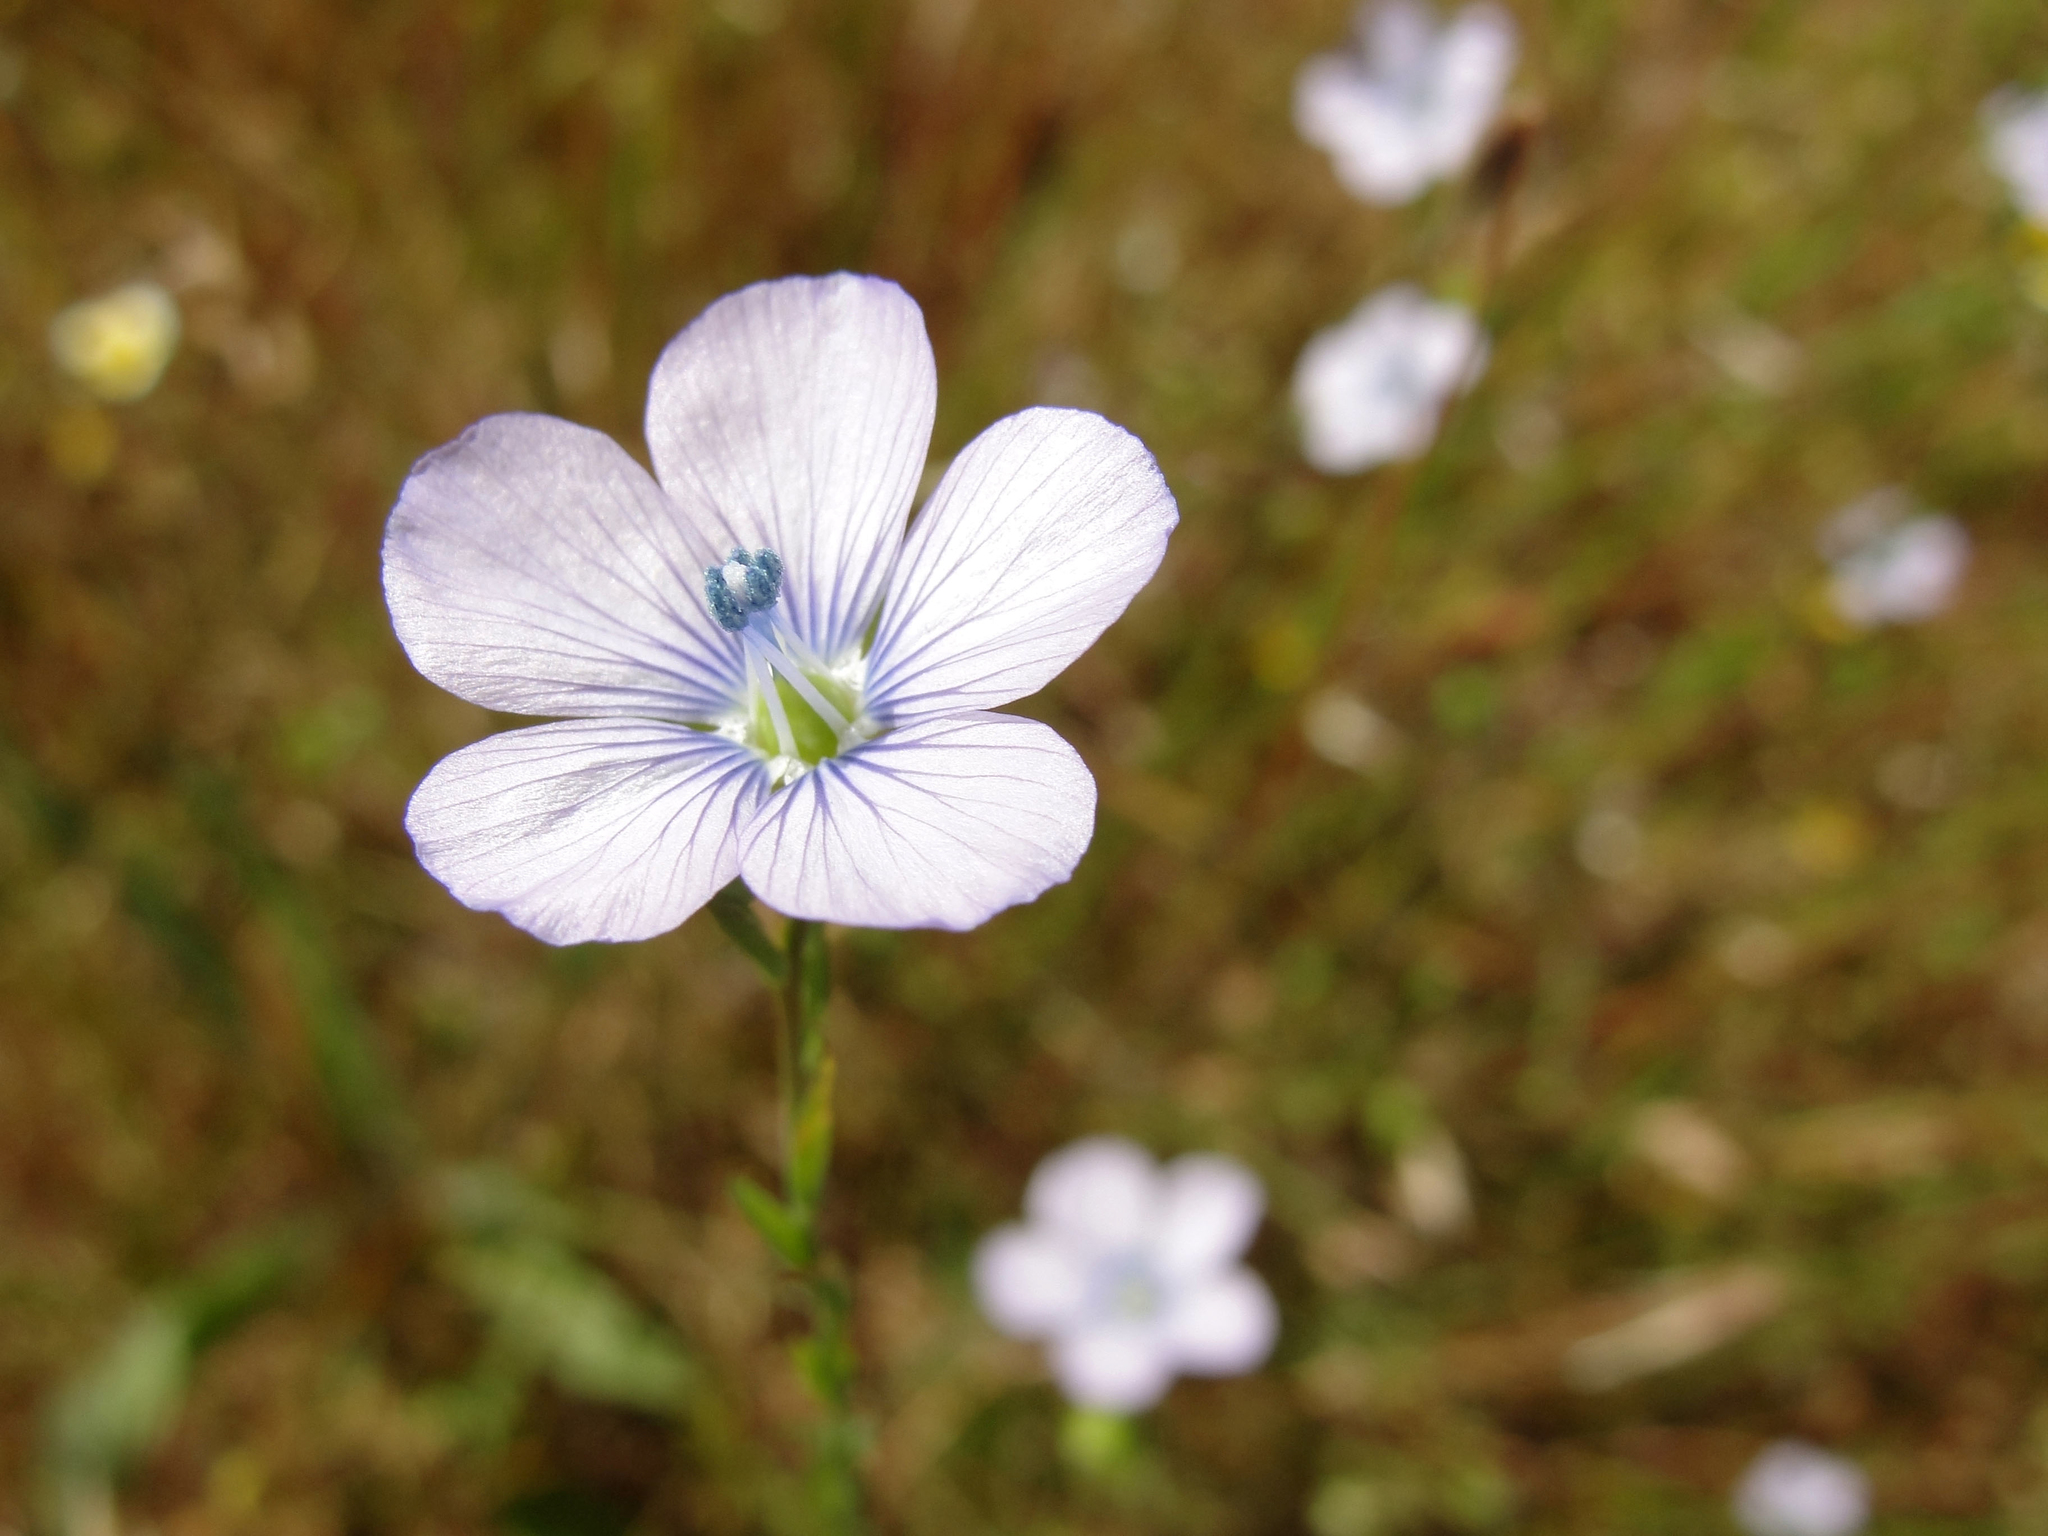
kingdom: Plantae
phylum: Tracheophyta
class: Magnoliopsida
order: Malpighiales
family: Linaceae
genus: Linum
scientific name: Linum bienne
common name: Pale flax
